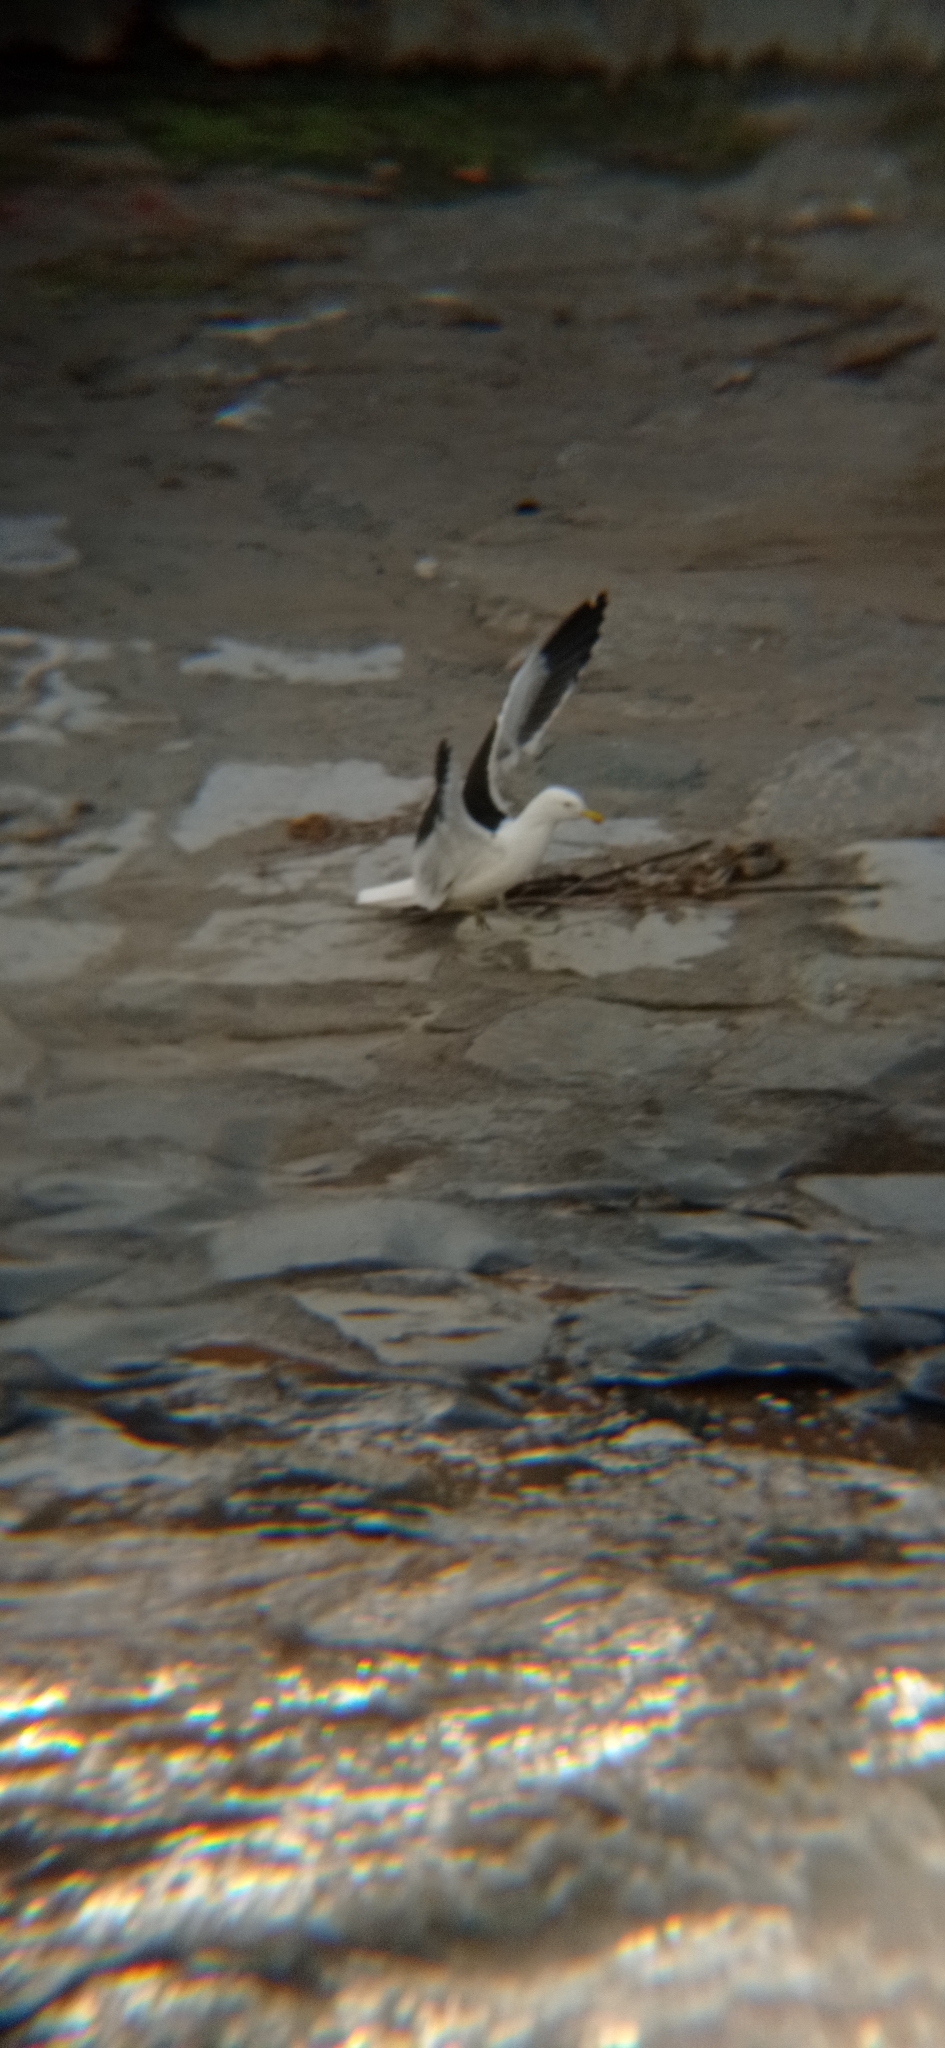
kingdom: Animalia
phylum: Chordata
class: Aves
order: Charadriiformes
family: Laridae
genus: Larus
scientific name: Larus dominicanus
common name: Kelp gull
